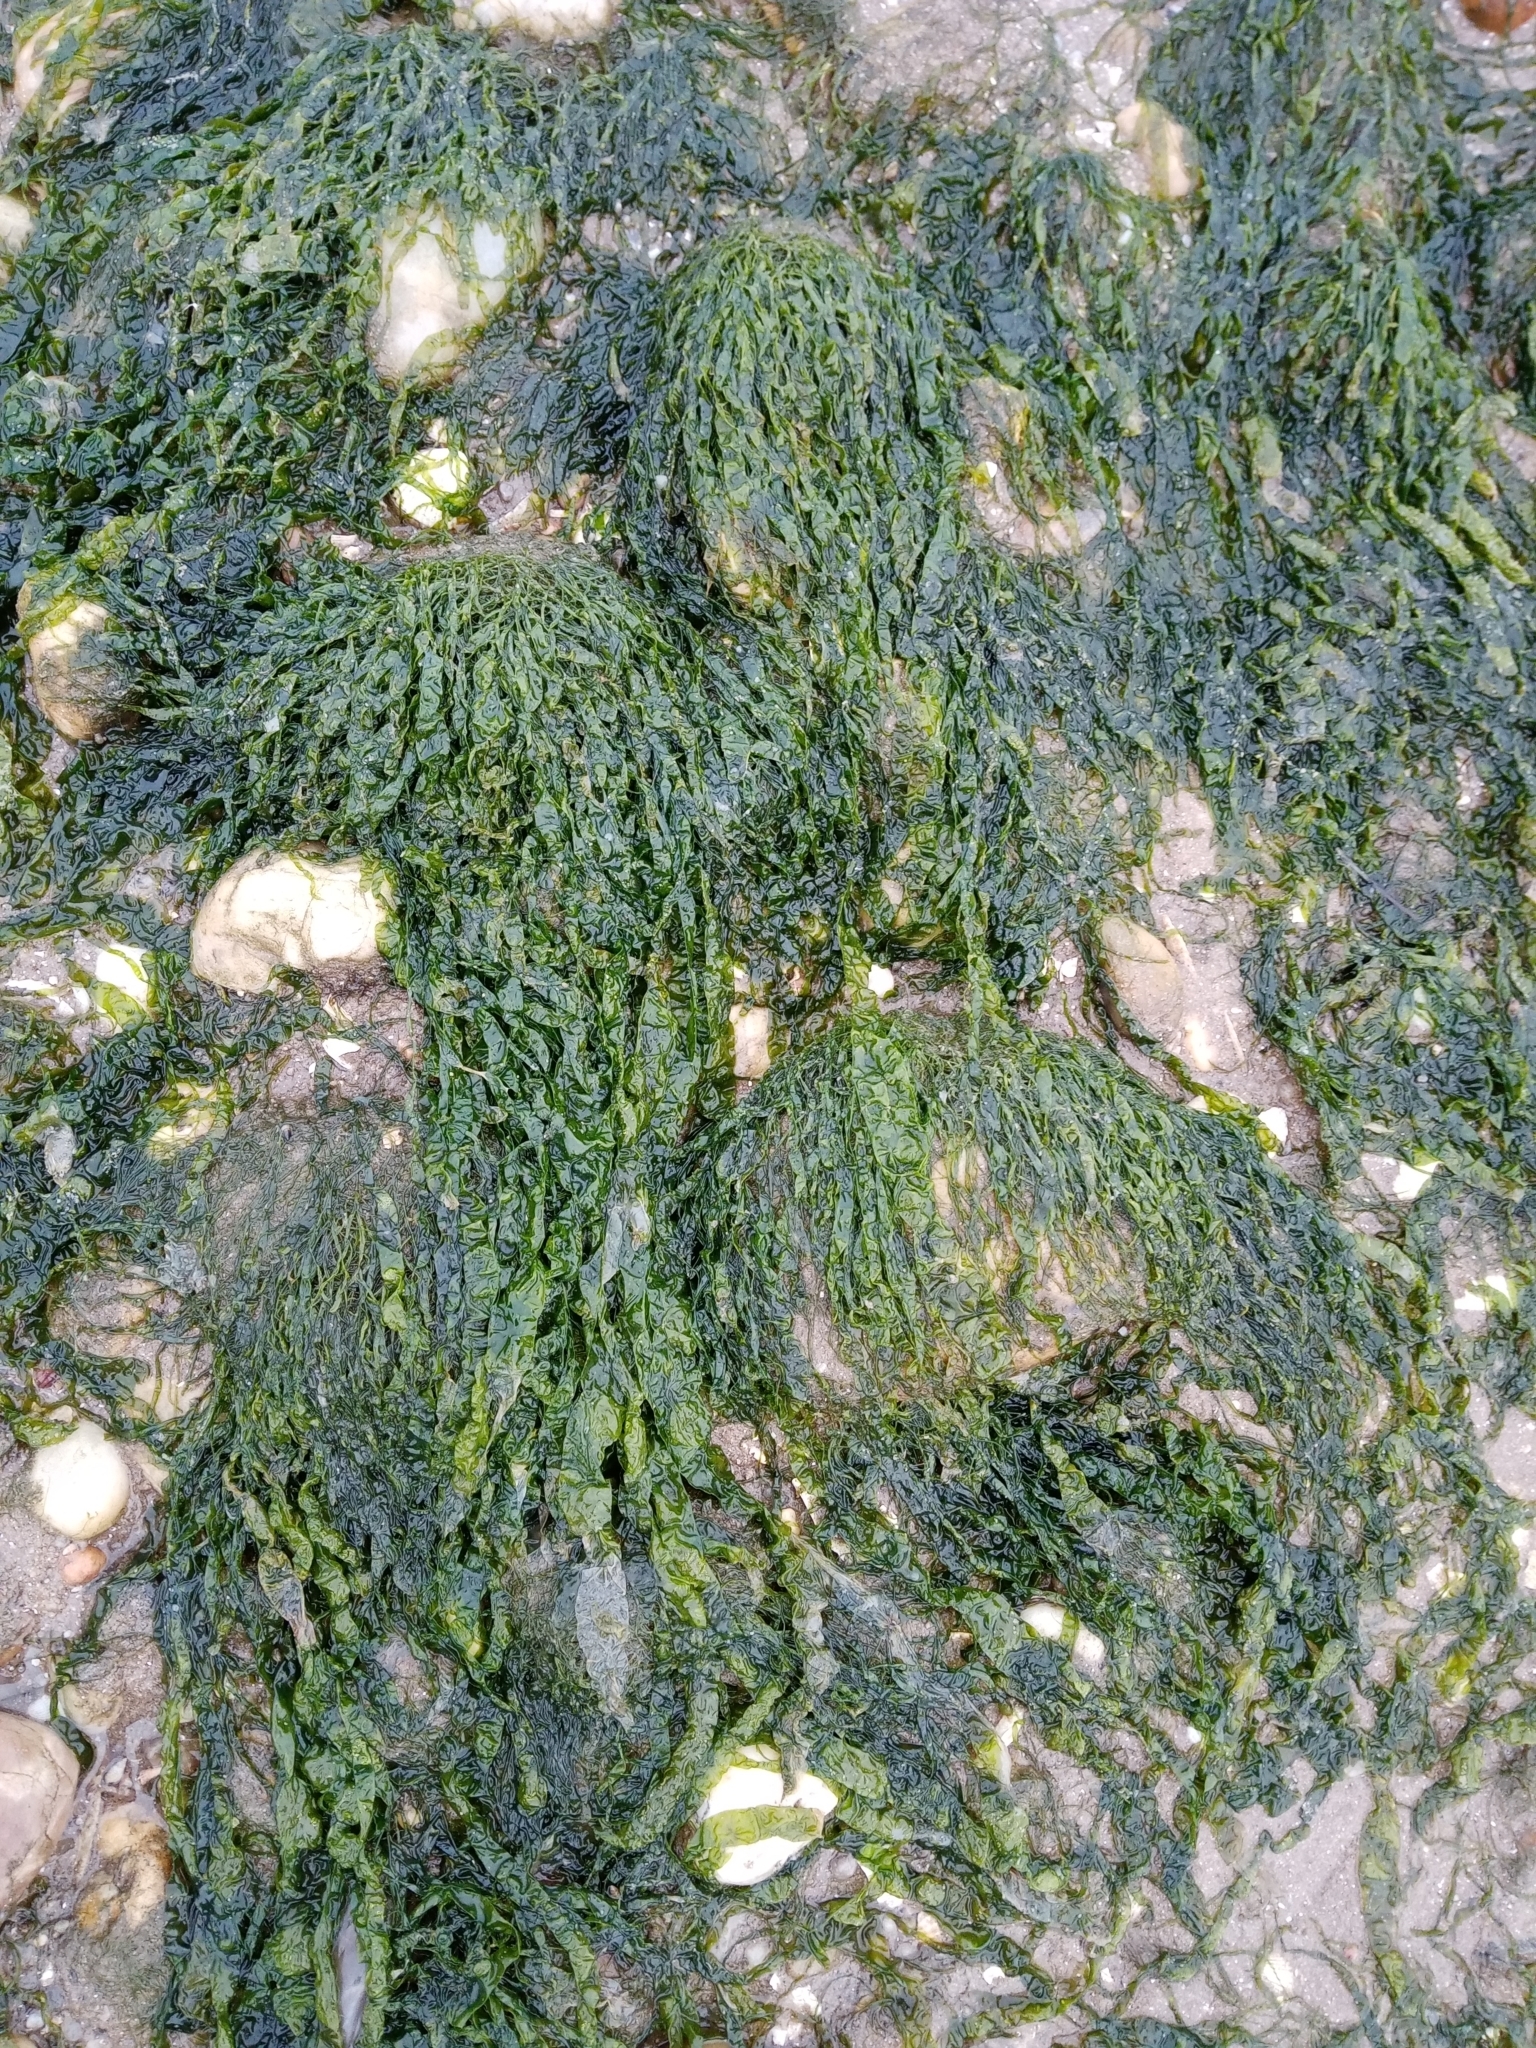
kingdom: Plantae
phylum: Chlorophyta
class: Ulvophyceae
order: Ulvales
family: Ulvaceae
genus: Ulva
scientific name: Ulva intestinalis
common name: Gut weed
